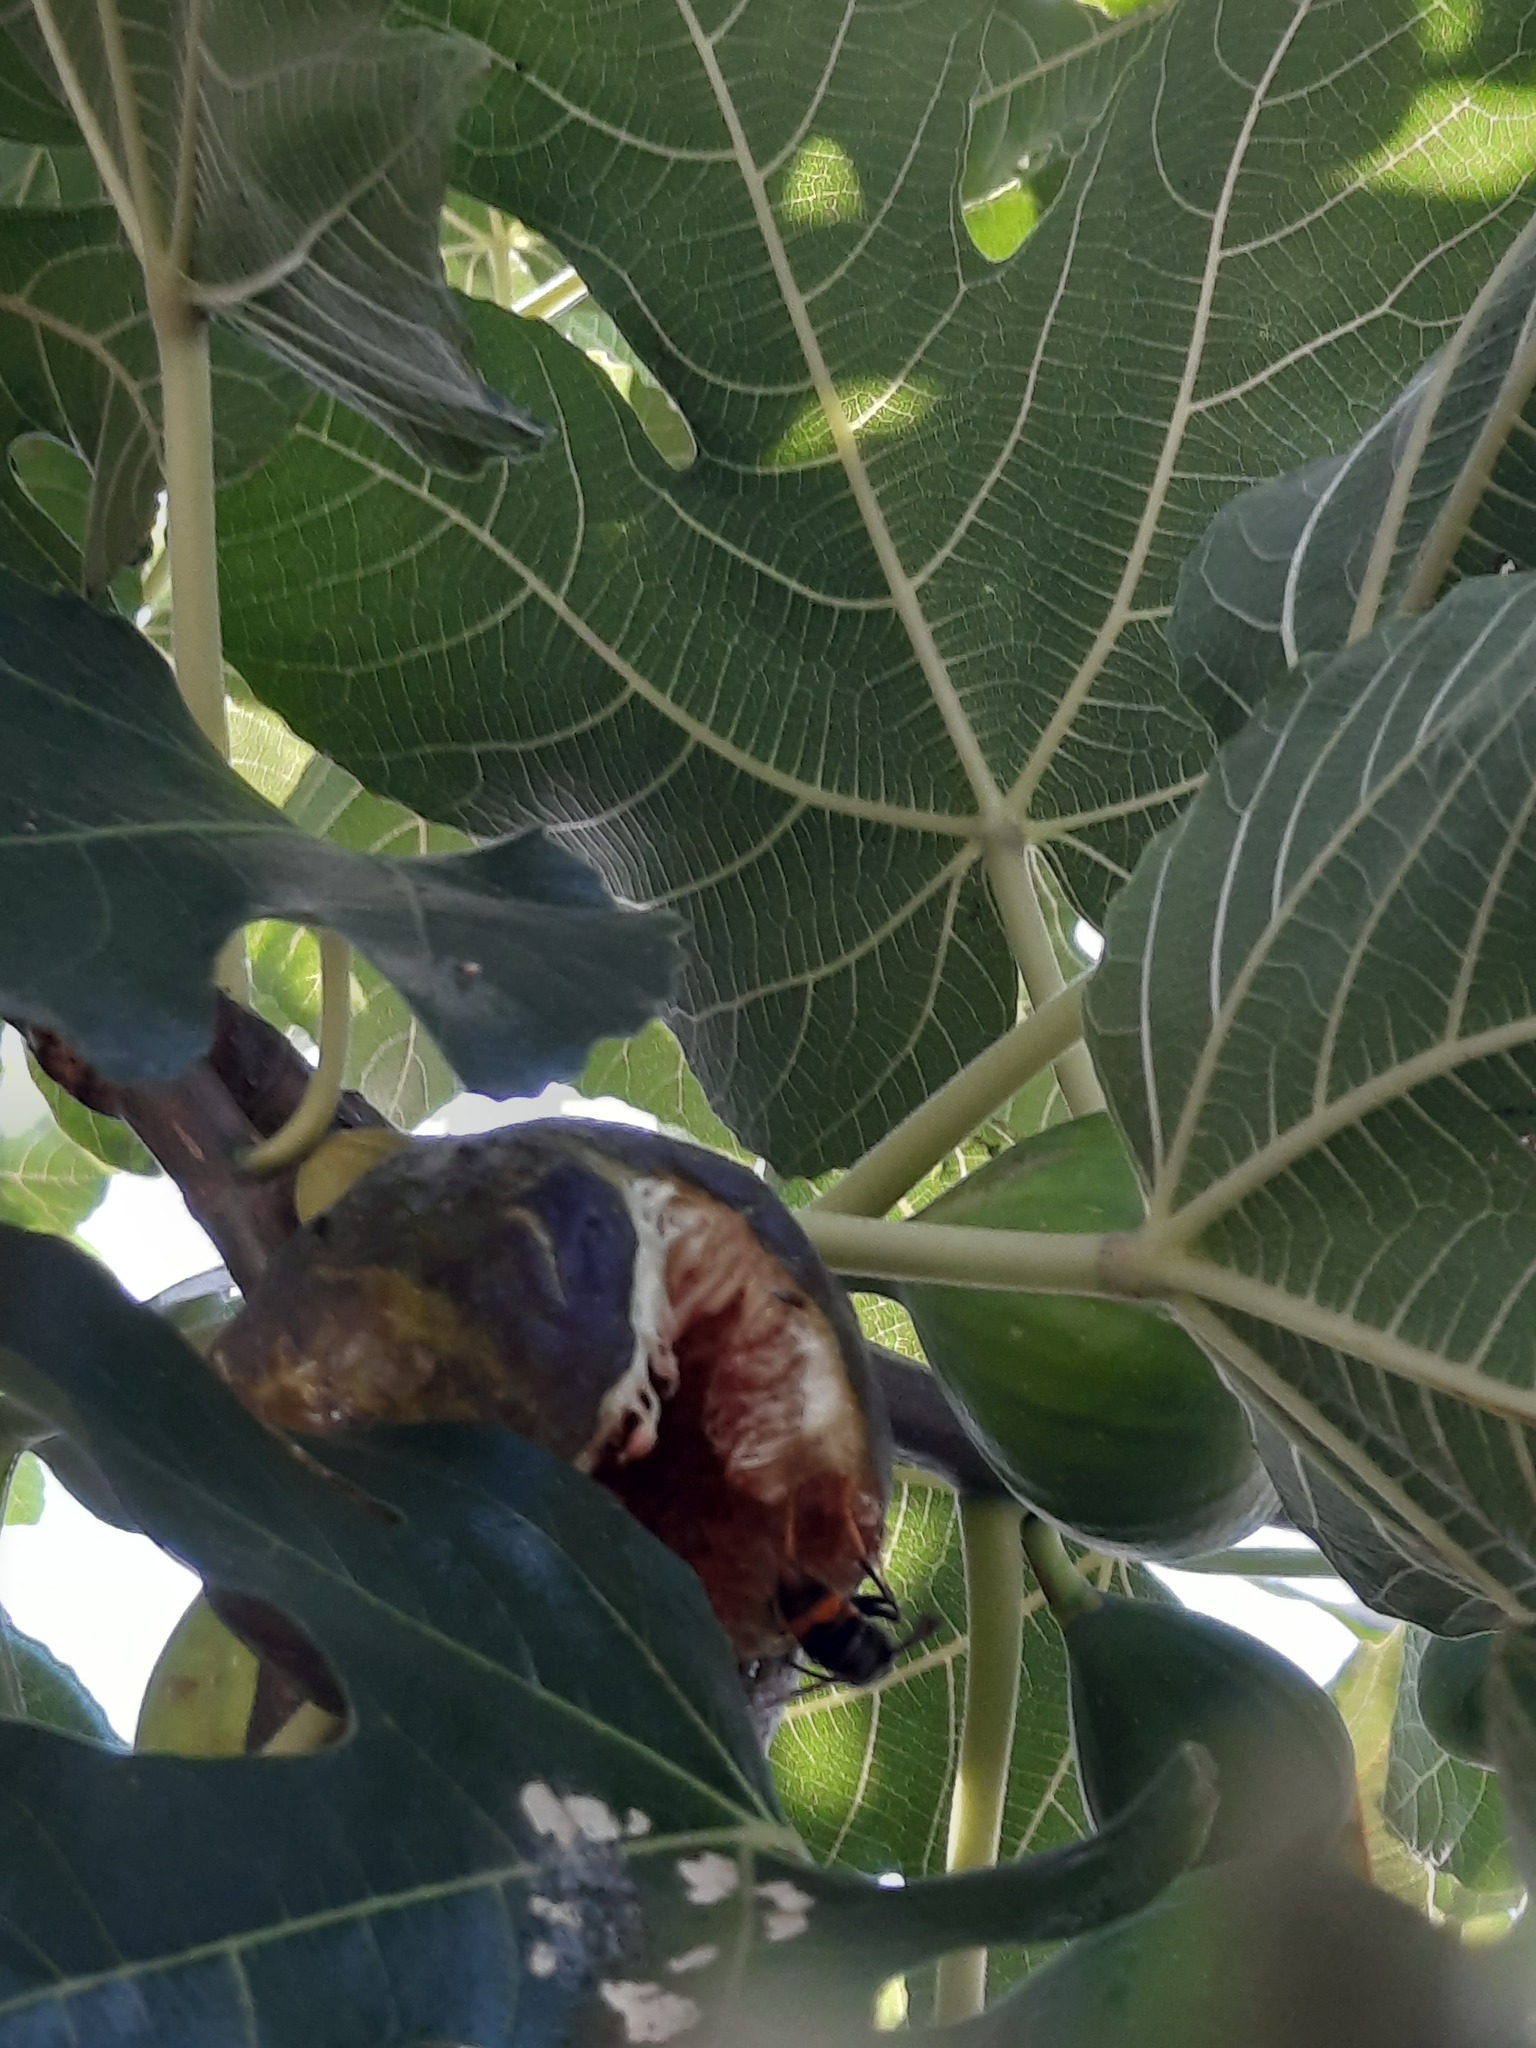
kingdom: Animalia
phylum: Arthropoda
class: Insecta
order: Hymenoptera
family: Vespidae
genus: Vespa
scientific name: Vespa velutina
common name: Asian hornet
